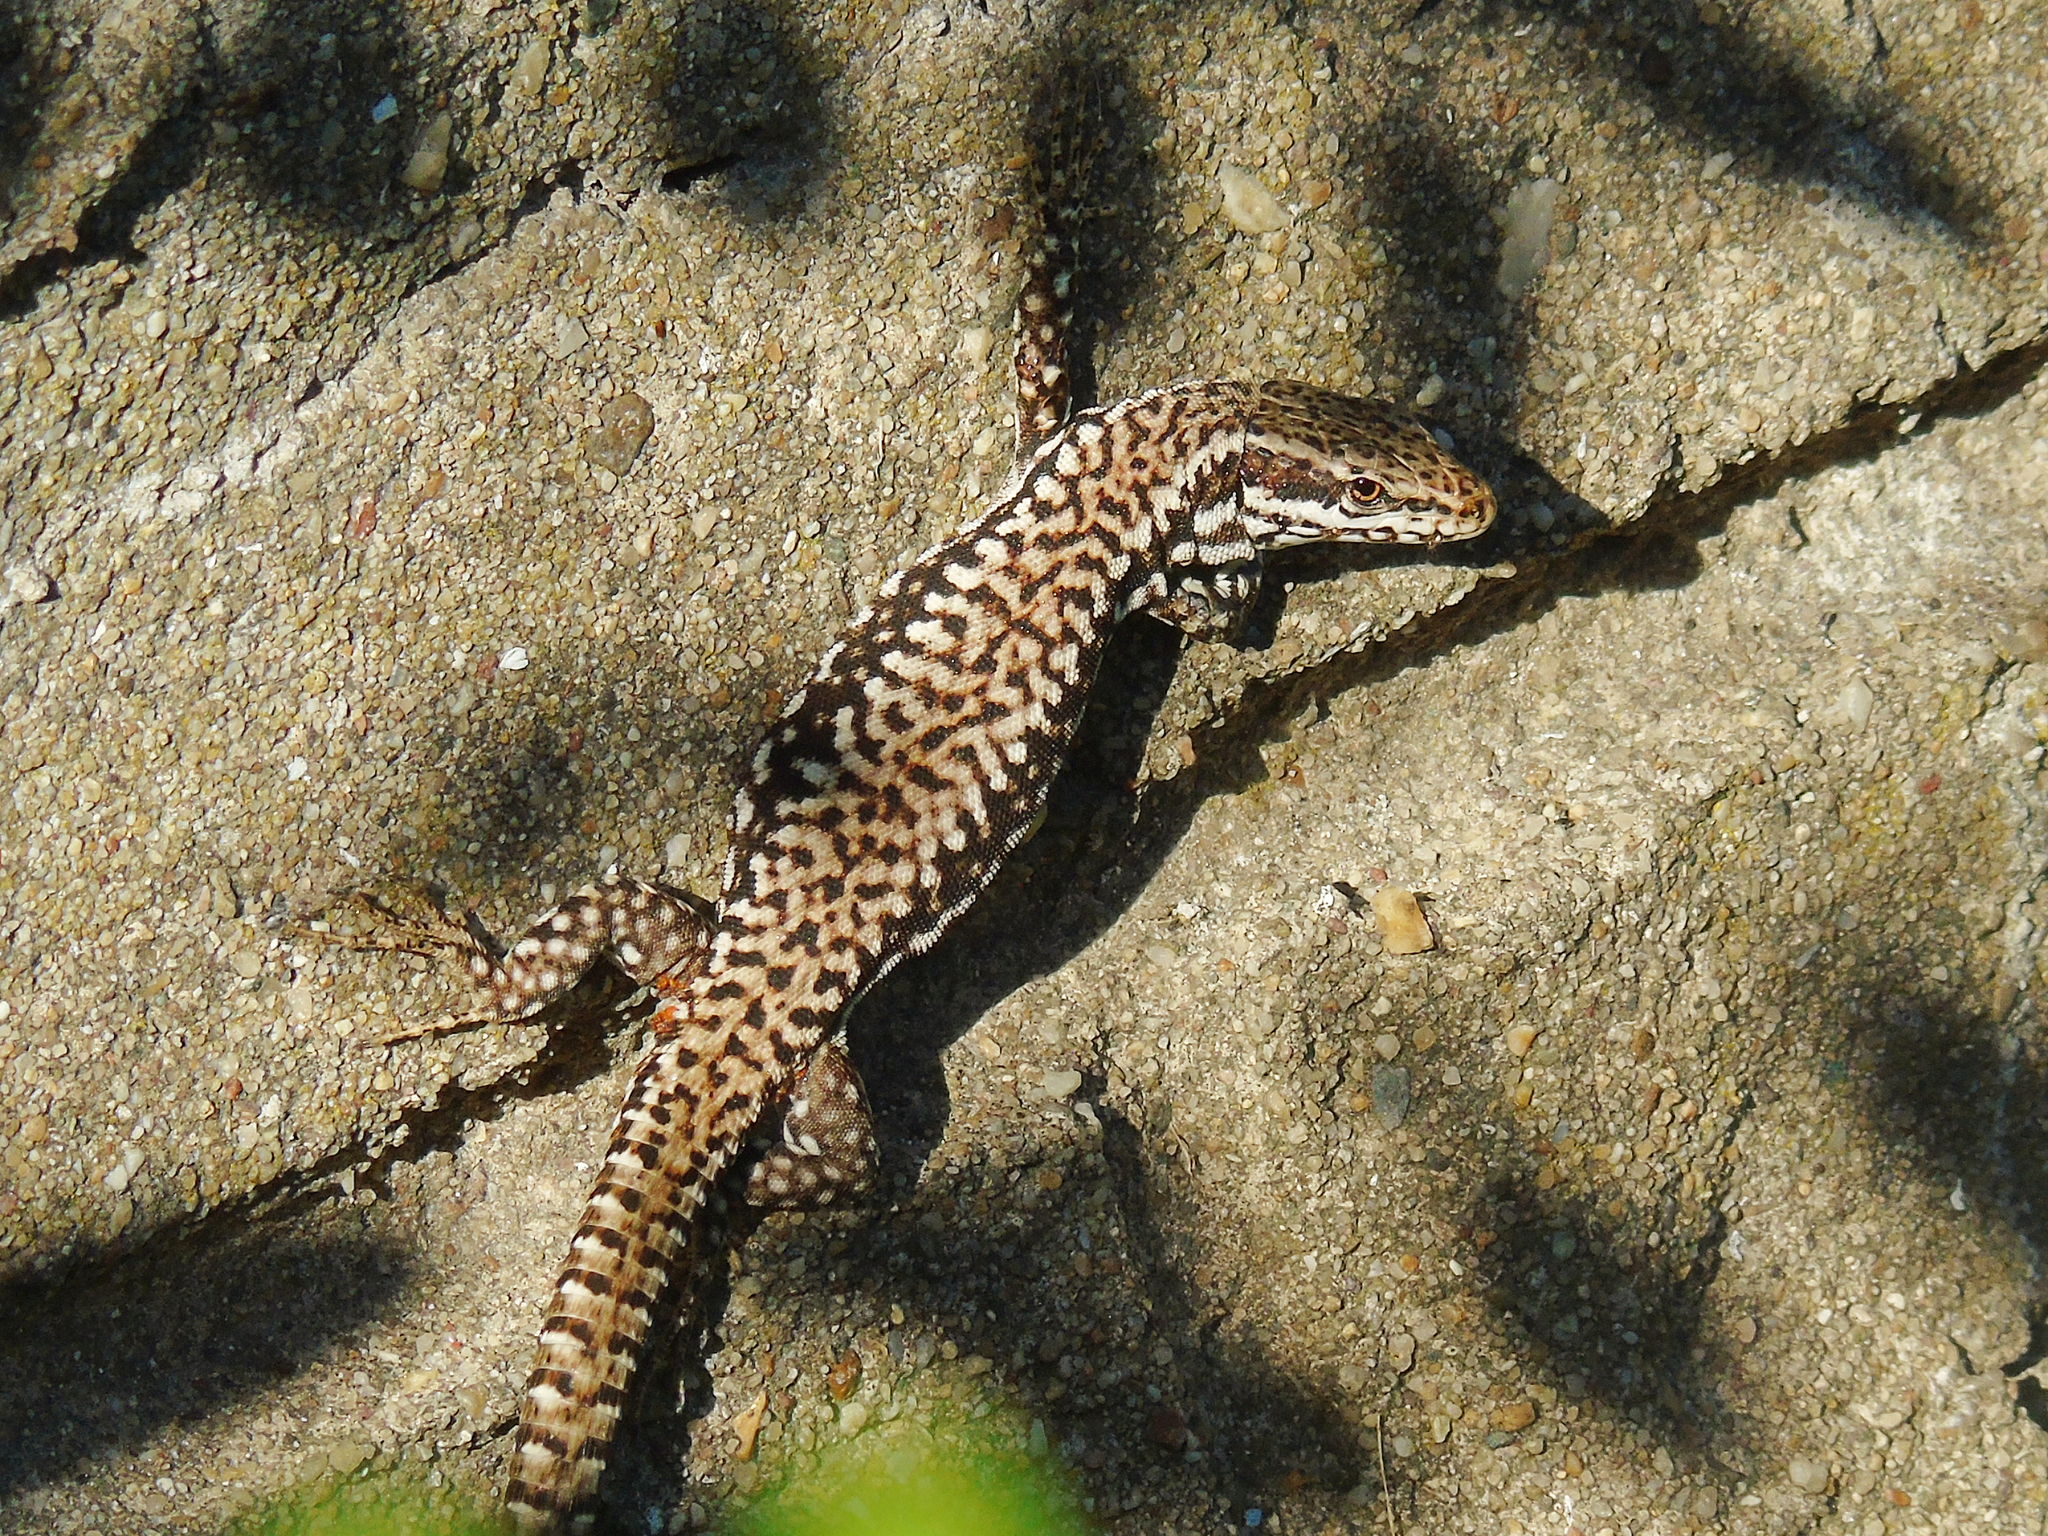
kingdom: Animalia
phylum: Chordata
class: Squamata
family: Lacertidae
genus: Podarcis
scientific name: Podarcis muralis
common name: Common wall lizard
